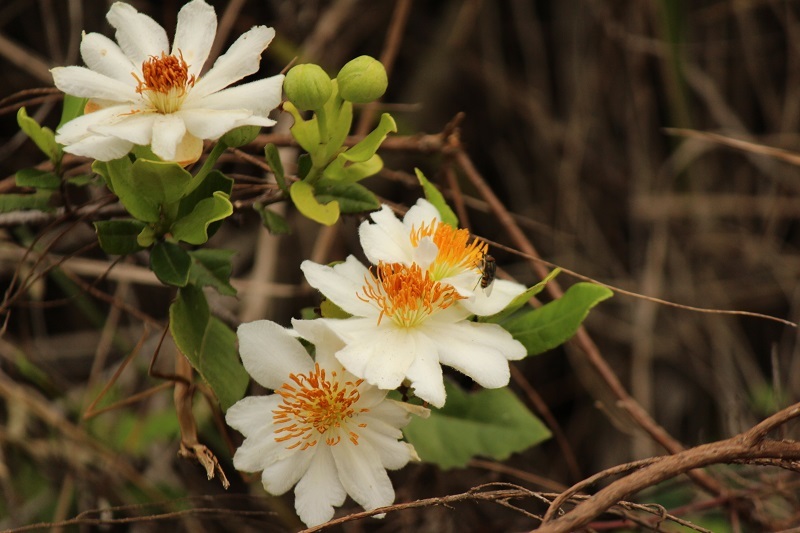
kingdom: Plantae
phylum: Tracheophyta
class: Magnoliopsida
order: Malpighiales
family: Achariaceae
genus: Xylotheca
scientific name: Xylotheca kraussiana
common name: African dog rose
